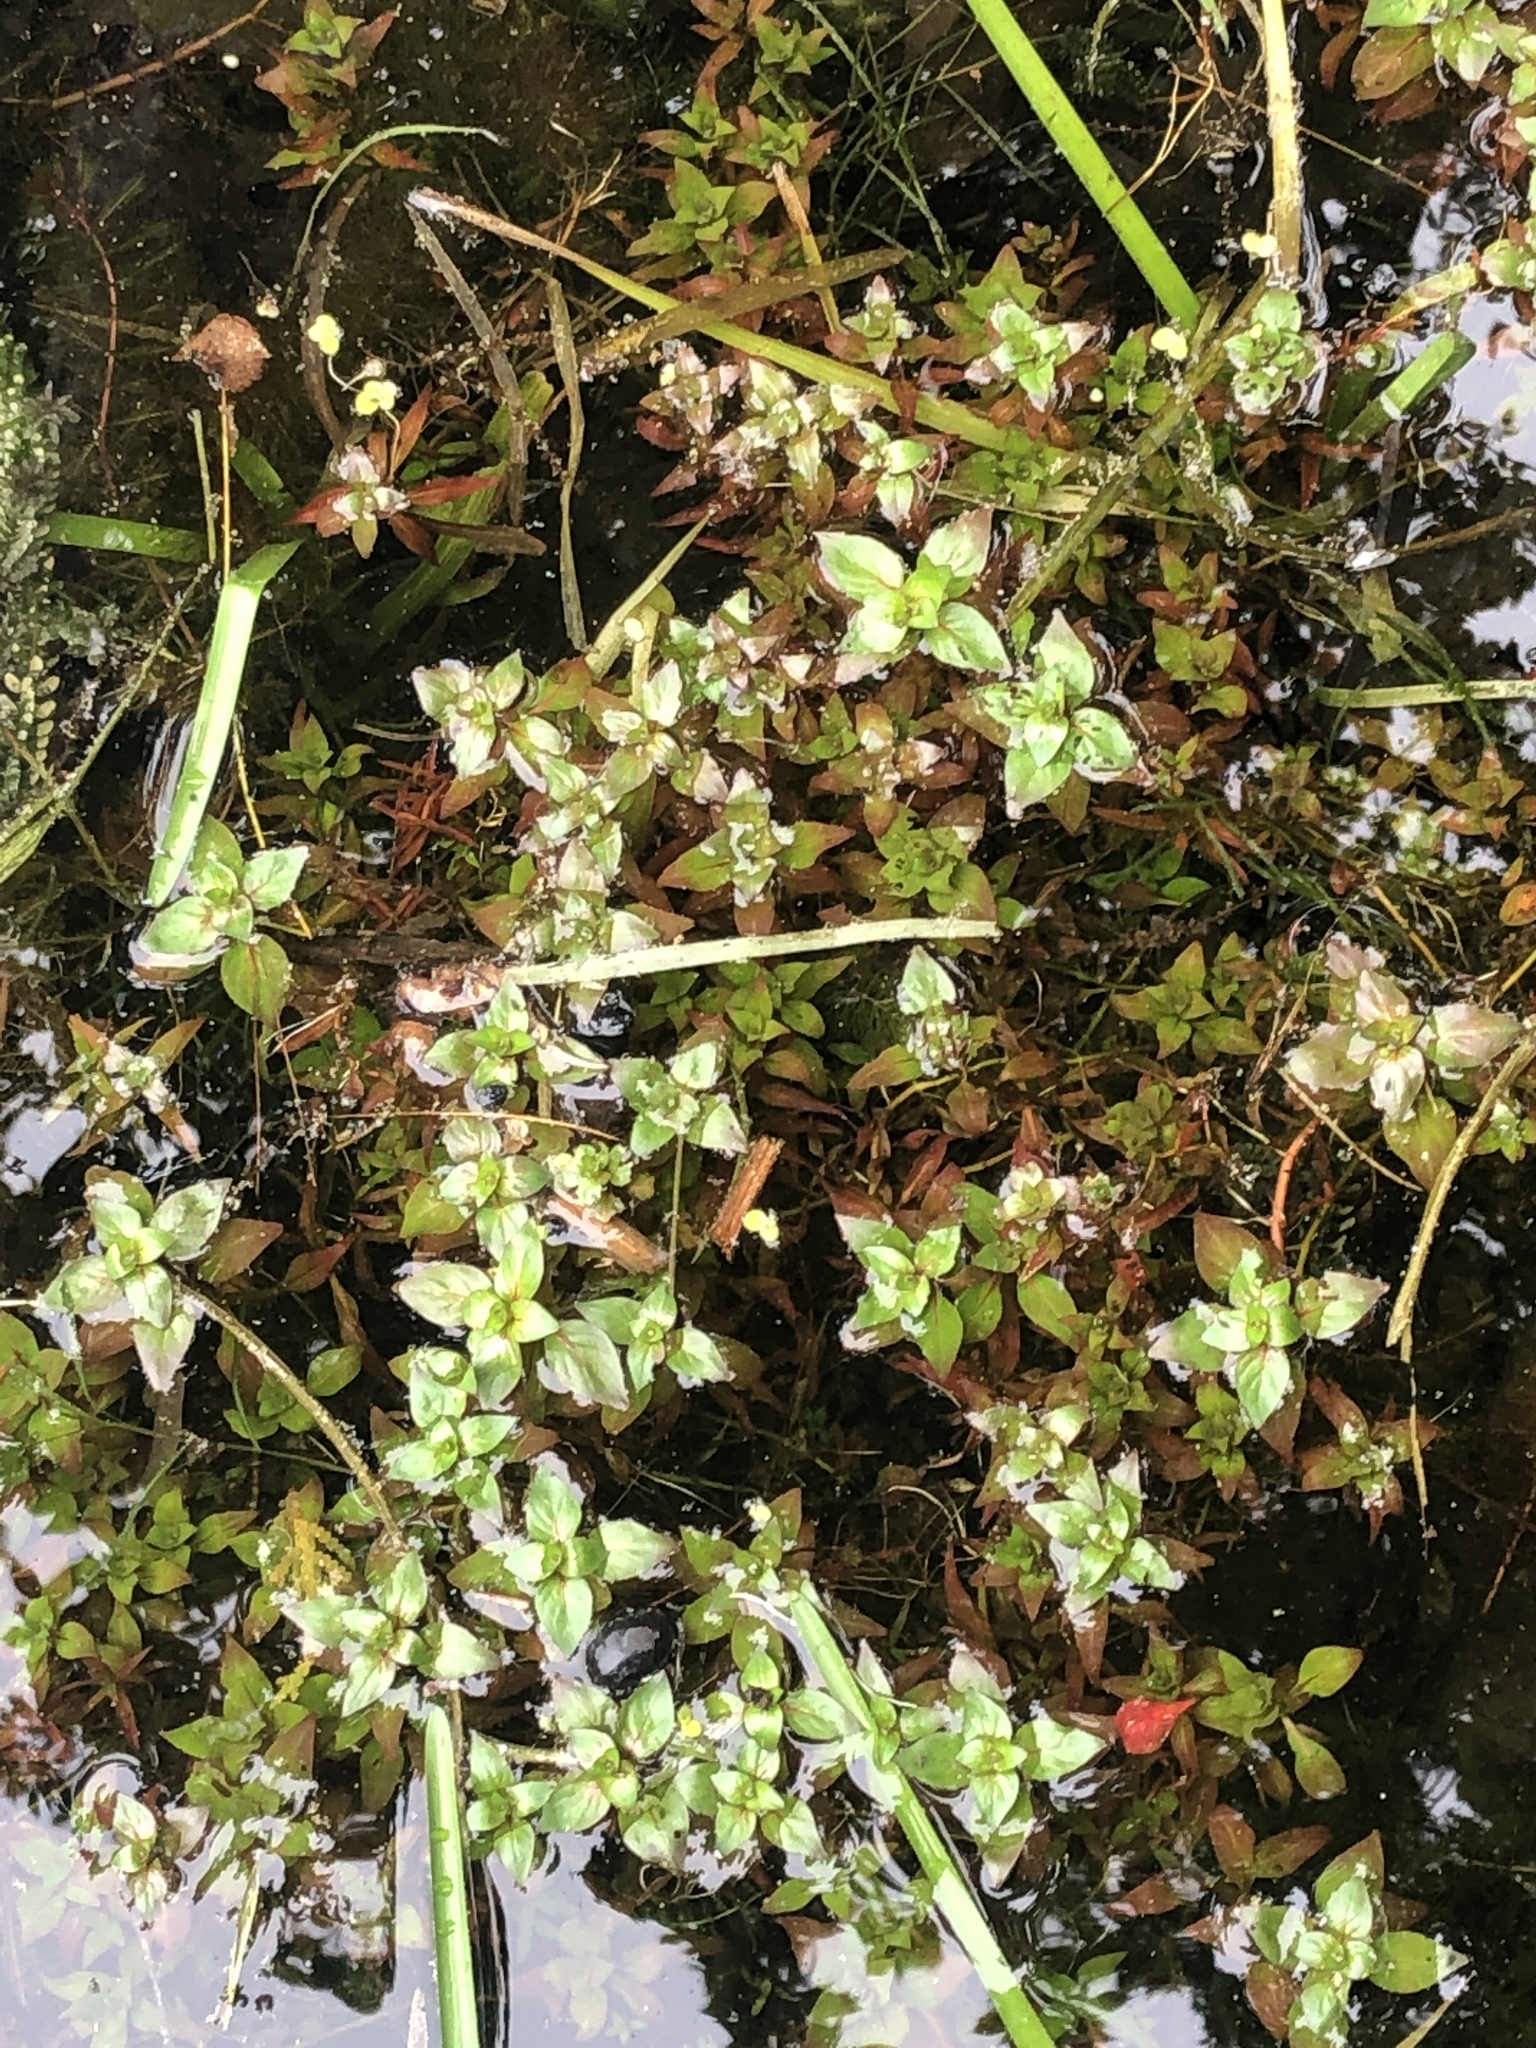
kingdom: Plantae
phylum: Tracheophyta
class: Magnoliopsida
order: Myrtales
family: Onagraceae
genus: Ludwigia
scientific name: Ludwigia palustris
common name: Hampshire-purslane
